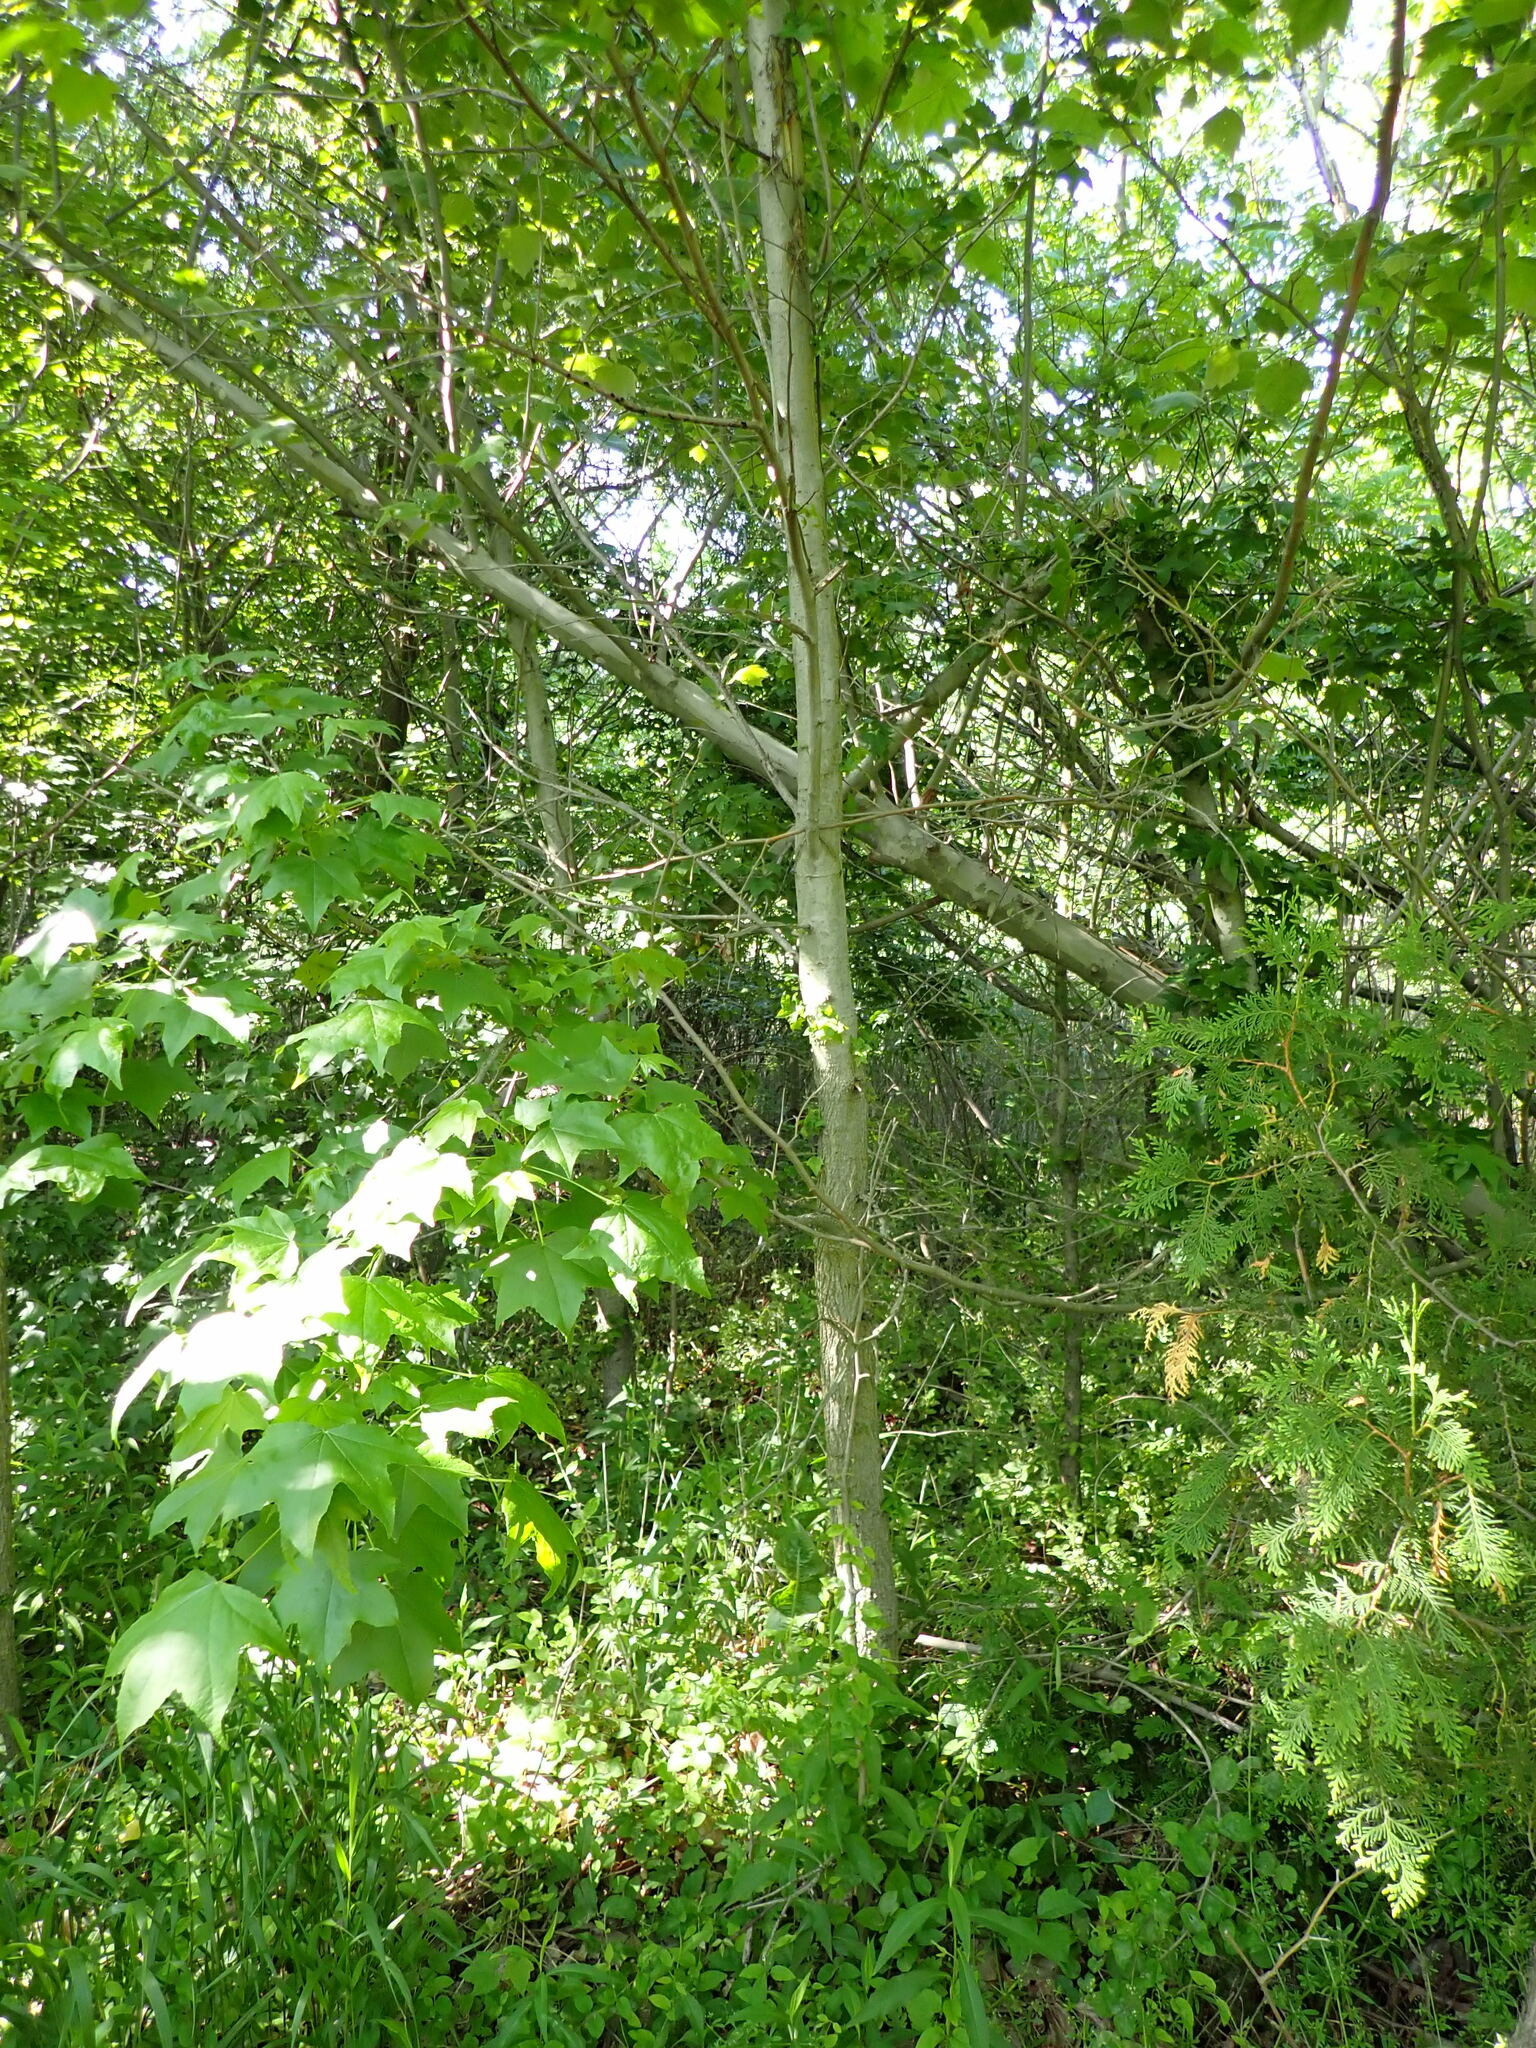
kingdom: Plantae
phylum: Tracheophyta
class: Magnoliopsida
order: Saxifragales
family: Altingiaceae
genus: Liquidambar
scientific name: Liquidambar styraciflua
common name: Sweet gum
